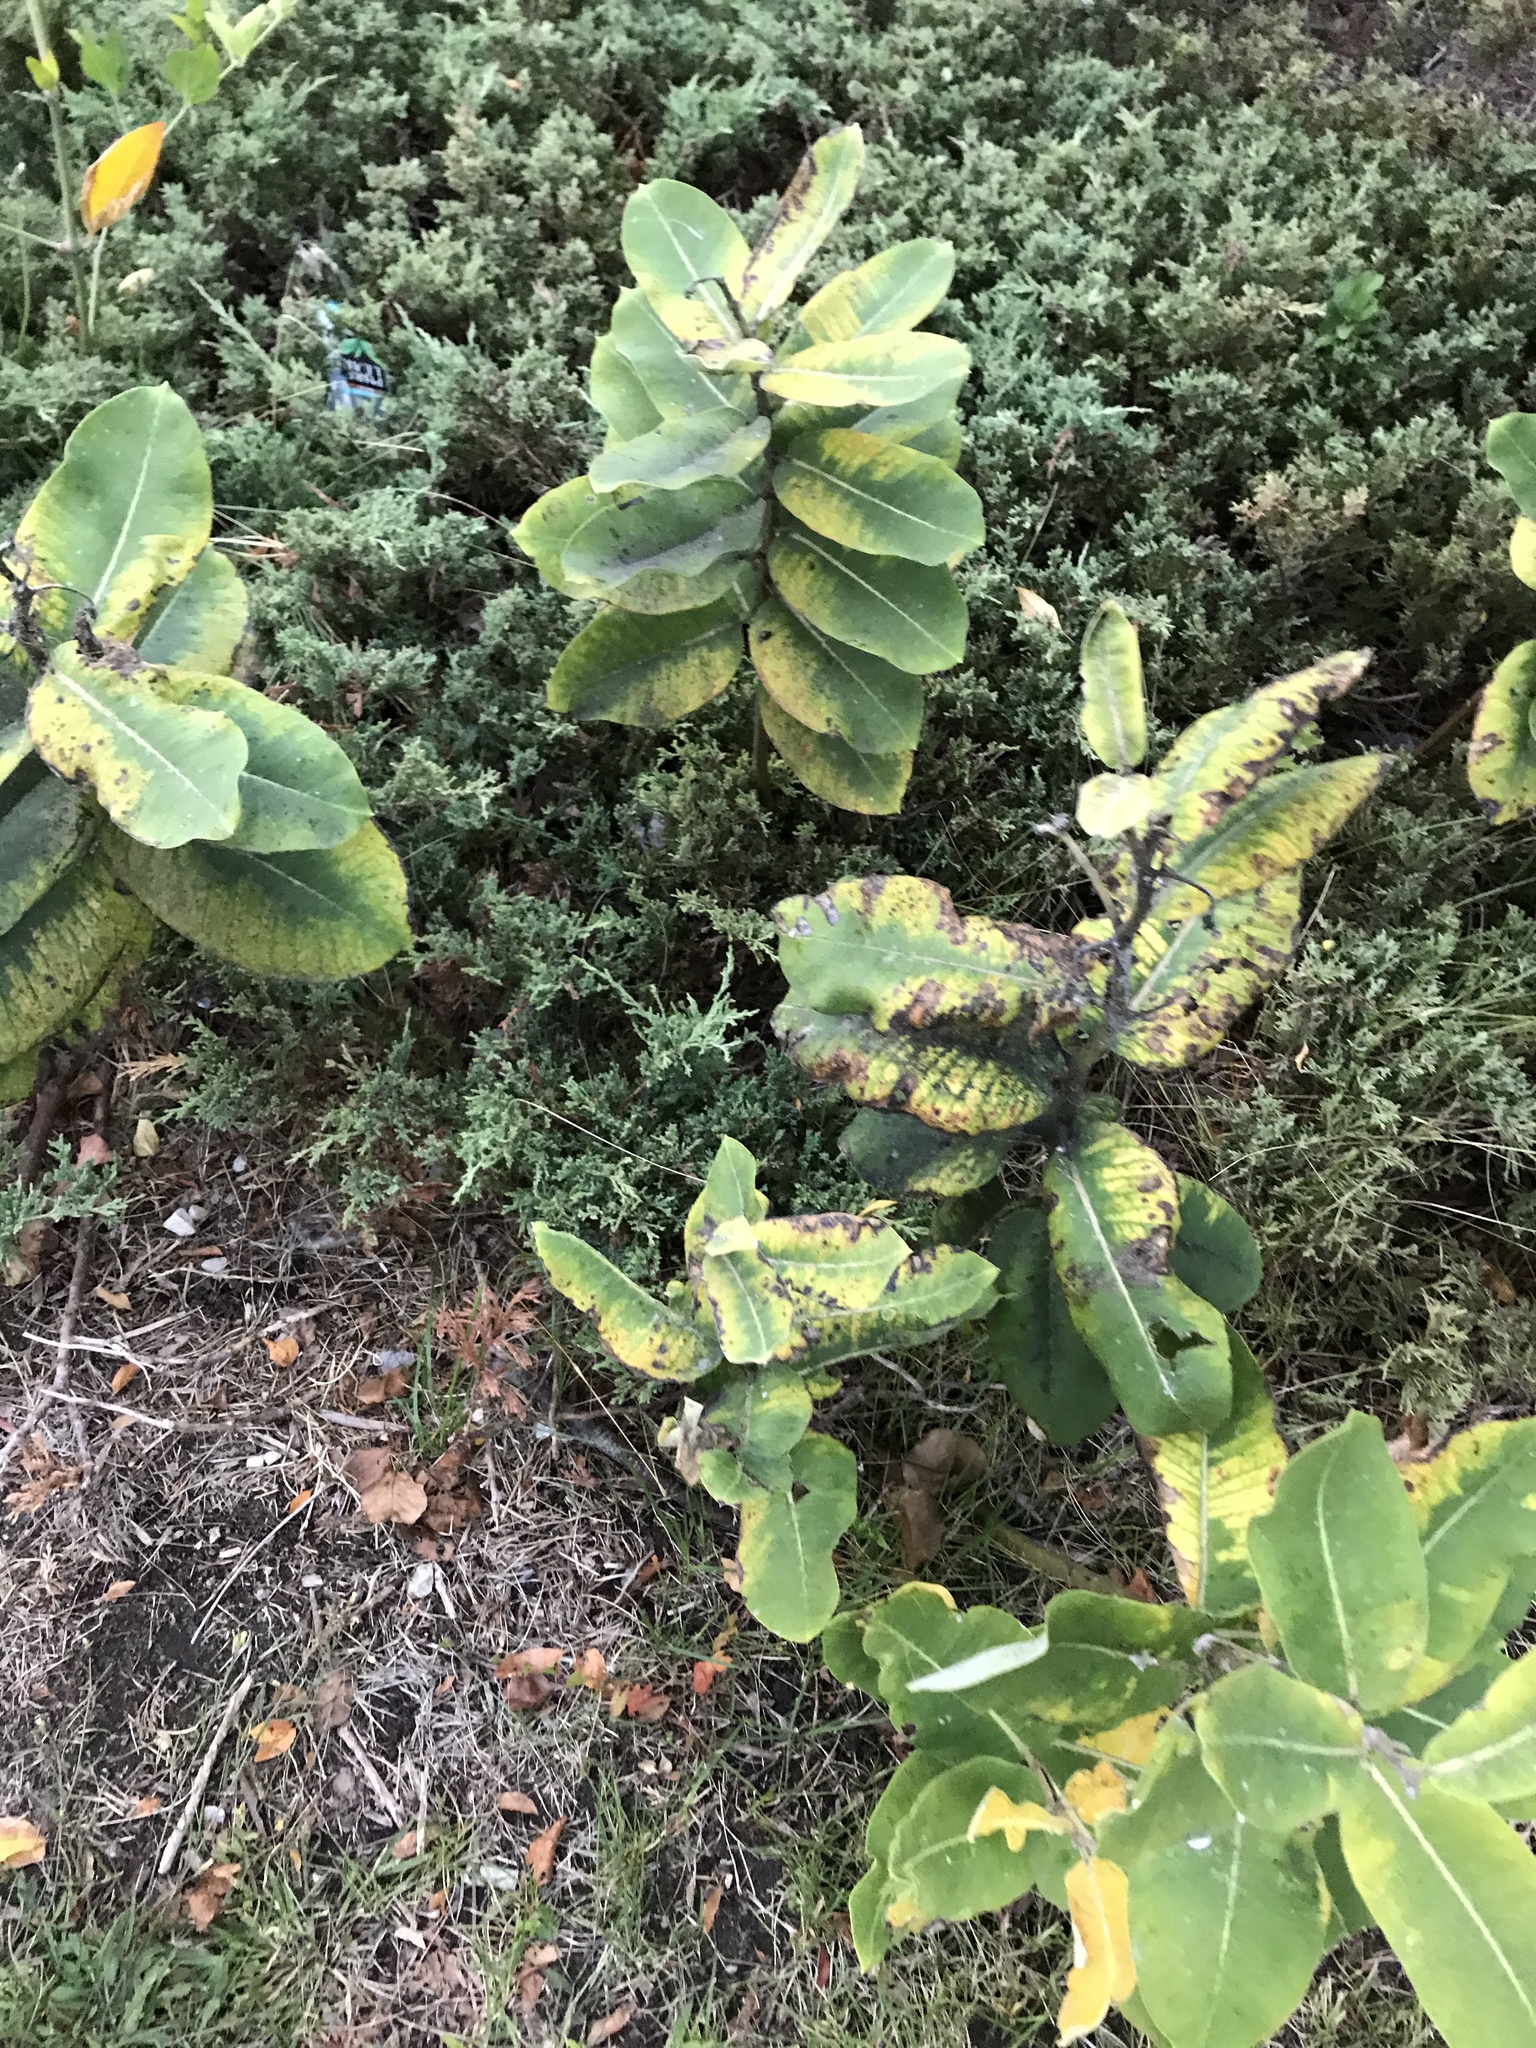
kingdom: Plantae
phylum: Tracheophyta
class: Magnoliopsida
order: Gentianales
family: Apocynaceae
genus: Asclepias
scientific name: Asclepias syriaca
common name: Common milkweed
